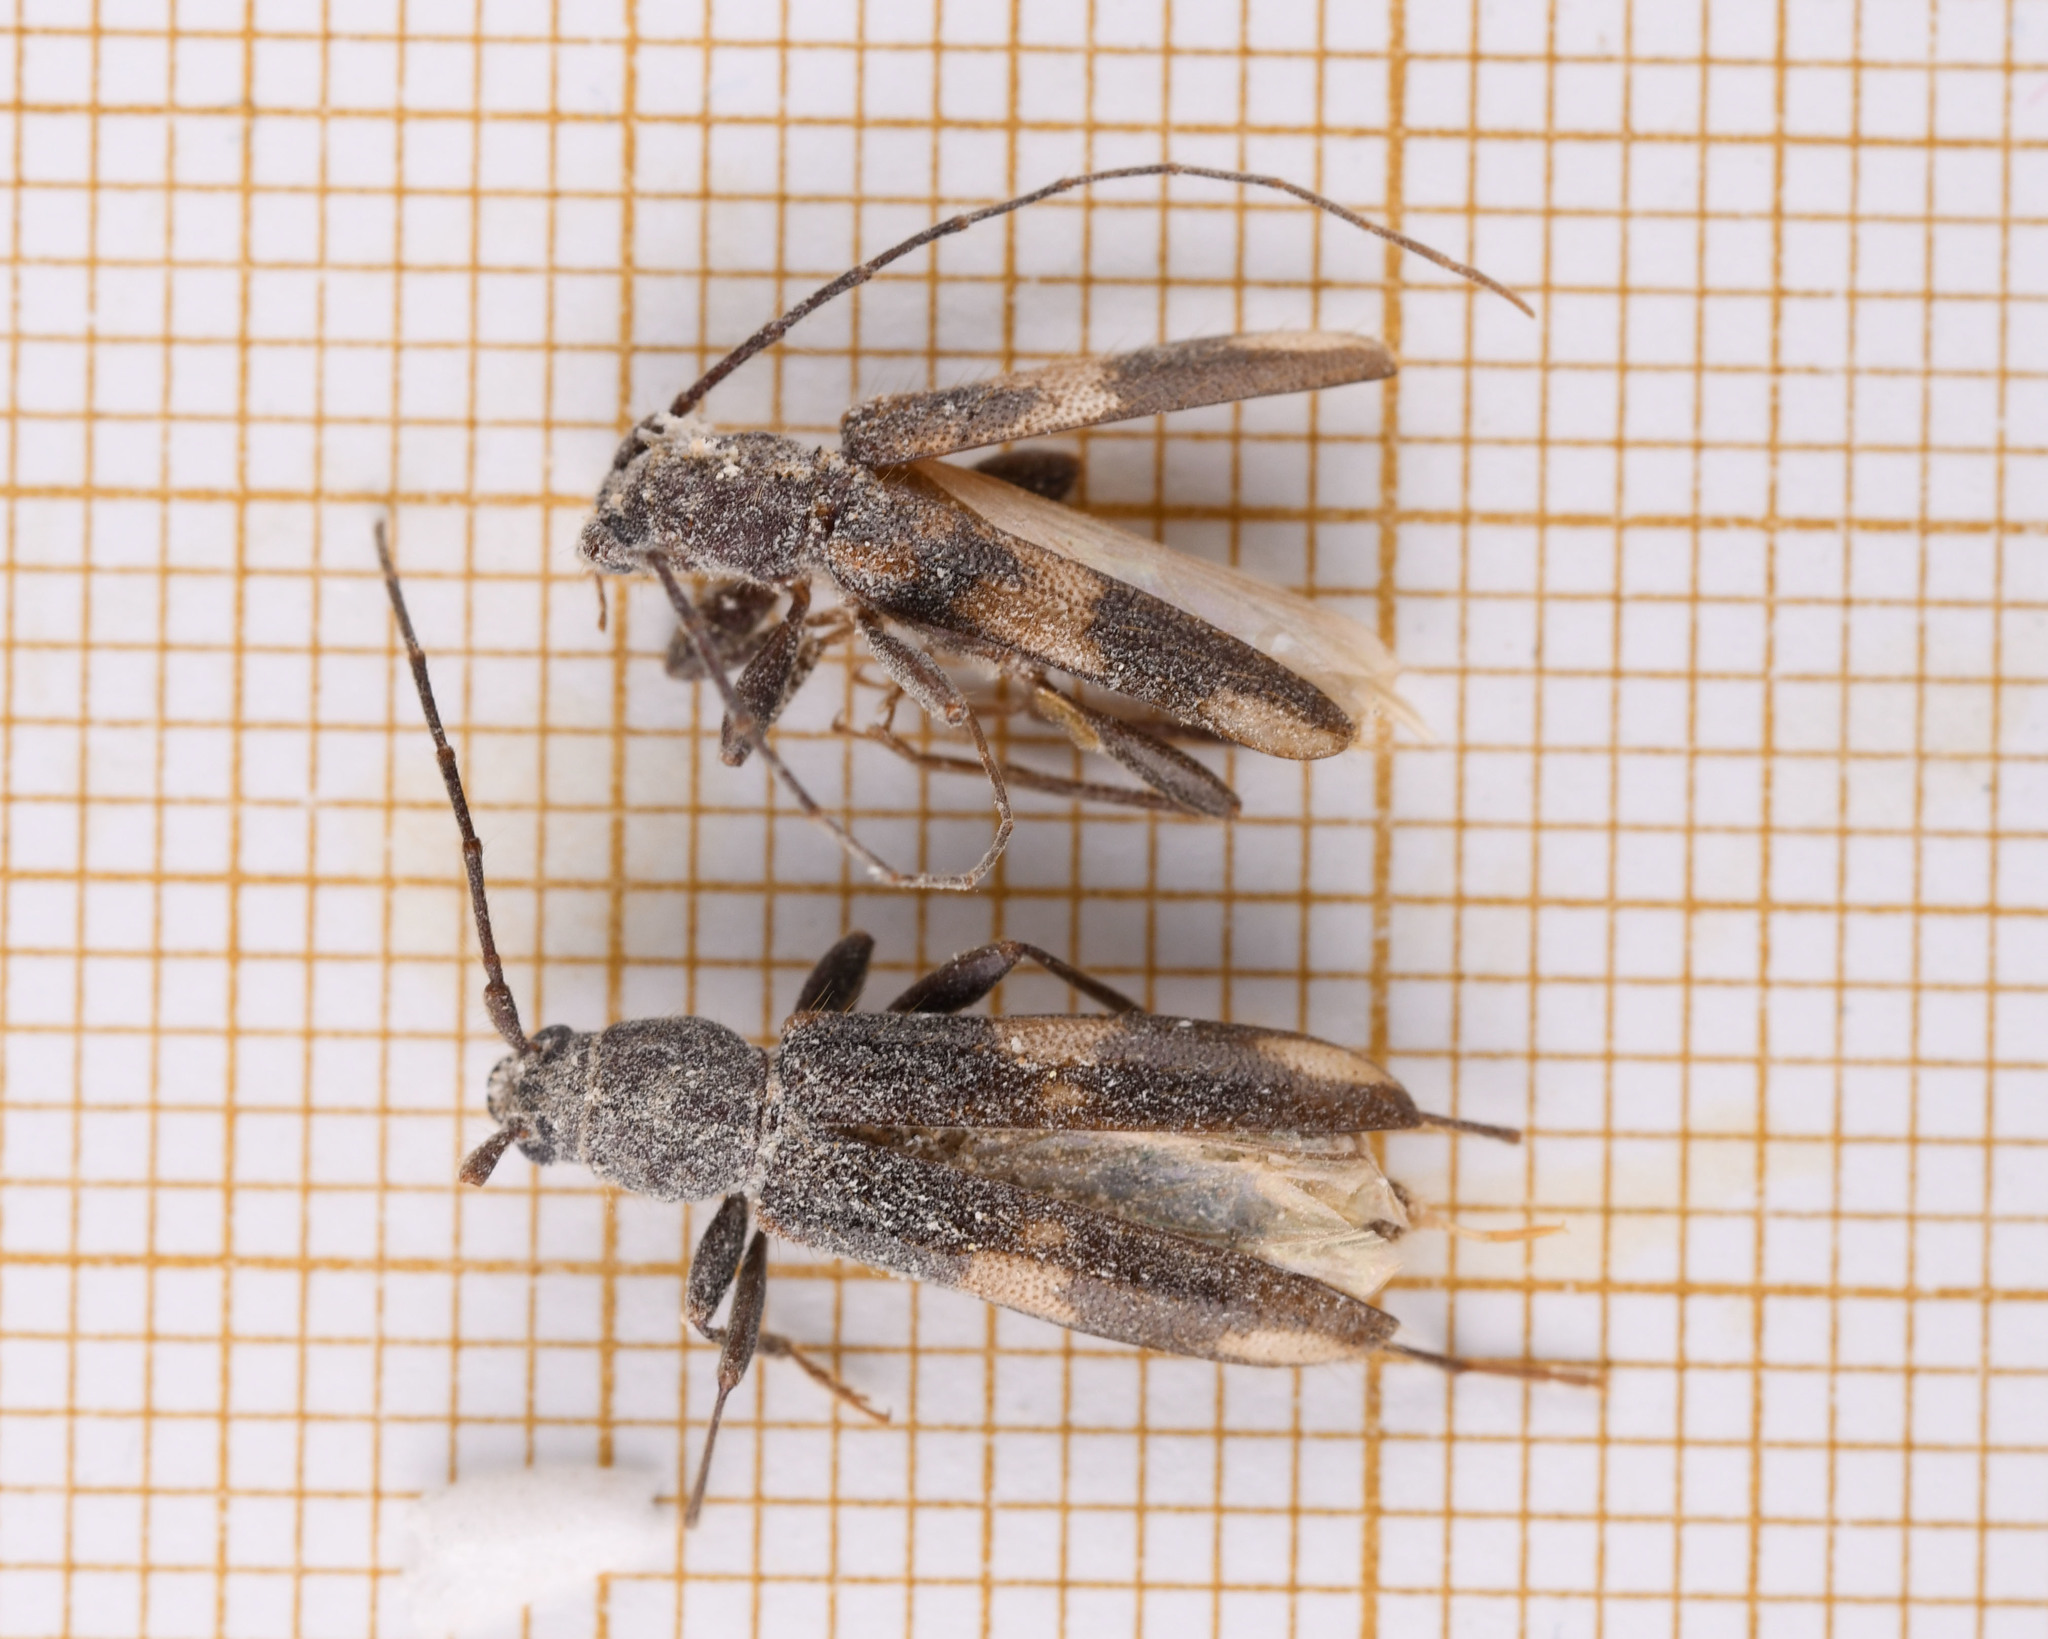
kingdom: Animalia
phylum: Arthropoda
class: Insecta
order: Coleoptera
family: Cerambycidae
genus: Penichroa
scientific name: Penichroa fasciata
